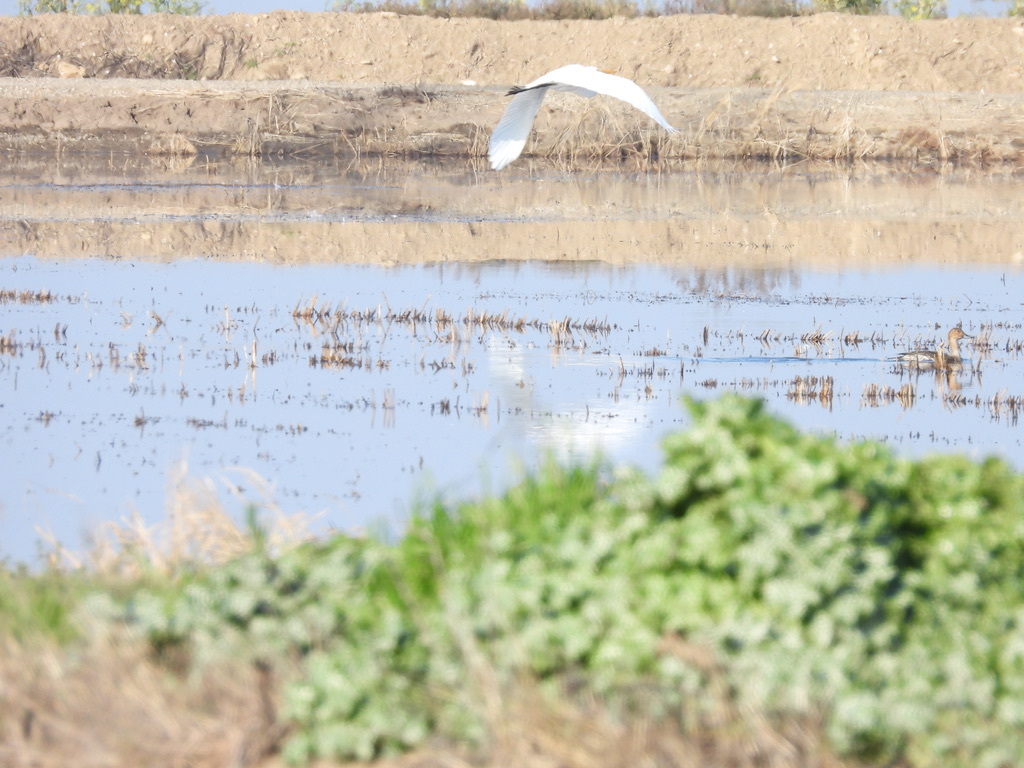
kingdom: Animalia
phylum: Chordata
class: Aves
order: Pelecaniformes
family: Ardeidae
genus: Ardea
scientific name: Ardea alba
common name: Great egret
